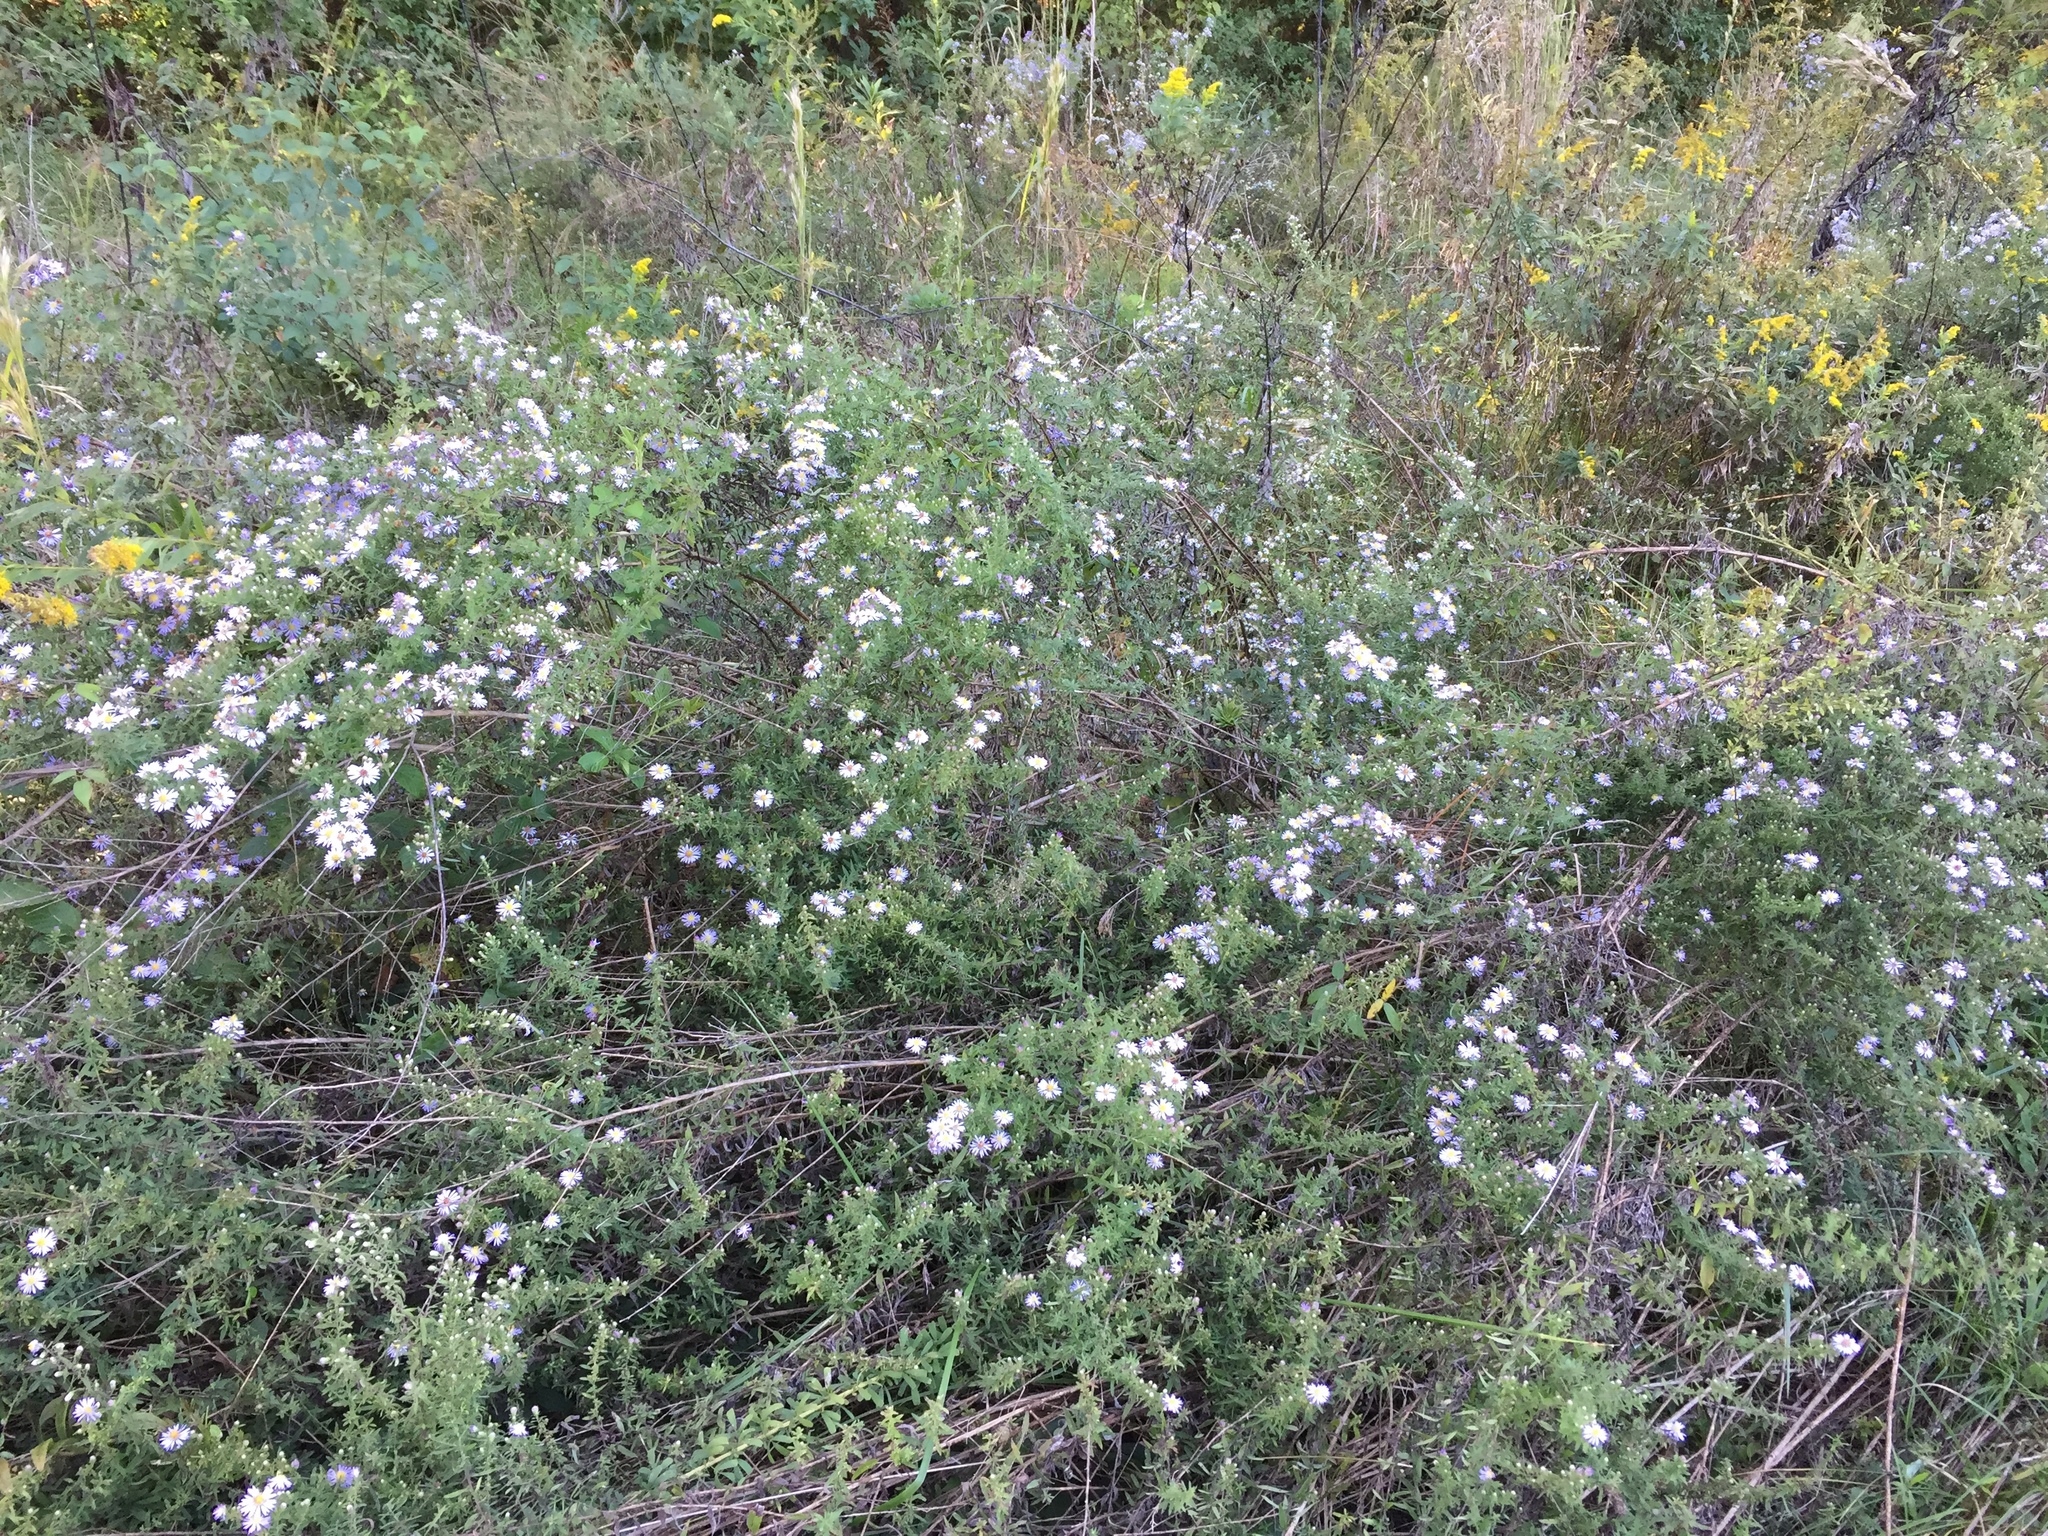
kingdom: Plantae
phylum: Tracheophyta
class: Magnoliopsida
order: Asterales
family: Asteraceae
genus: Symphyotrichum
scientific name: Symphyotrichum praealtum
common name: Willow aster
